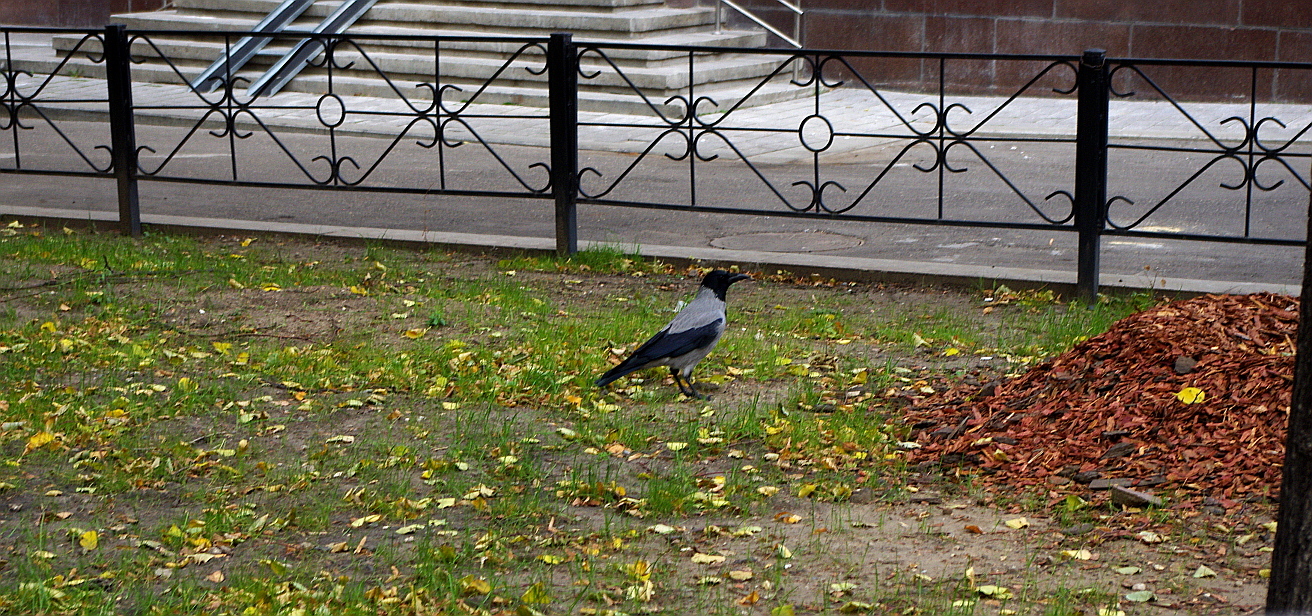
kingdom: Animalia
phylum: Chordata
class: Aves
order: Passeriformes
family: Corvidae
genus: Corvus
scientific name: Corvus cornix
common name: Hooded crow
